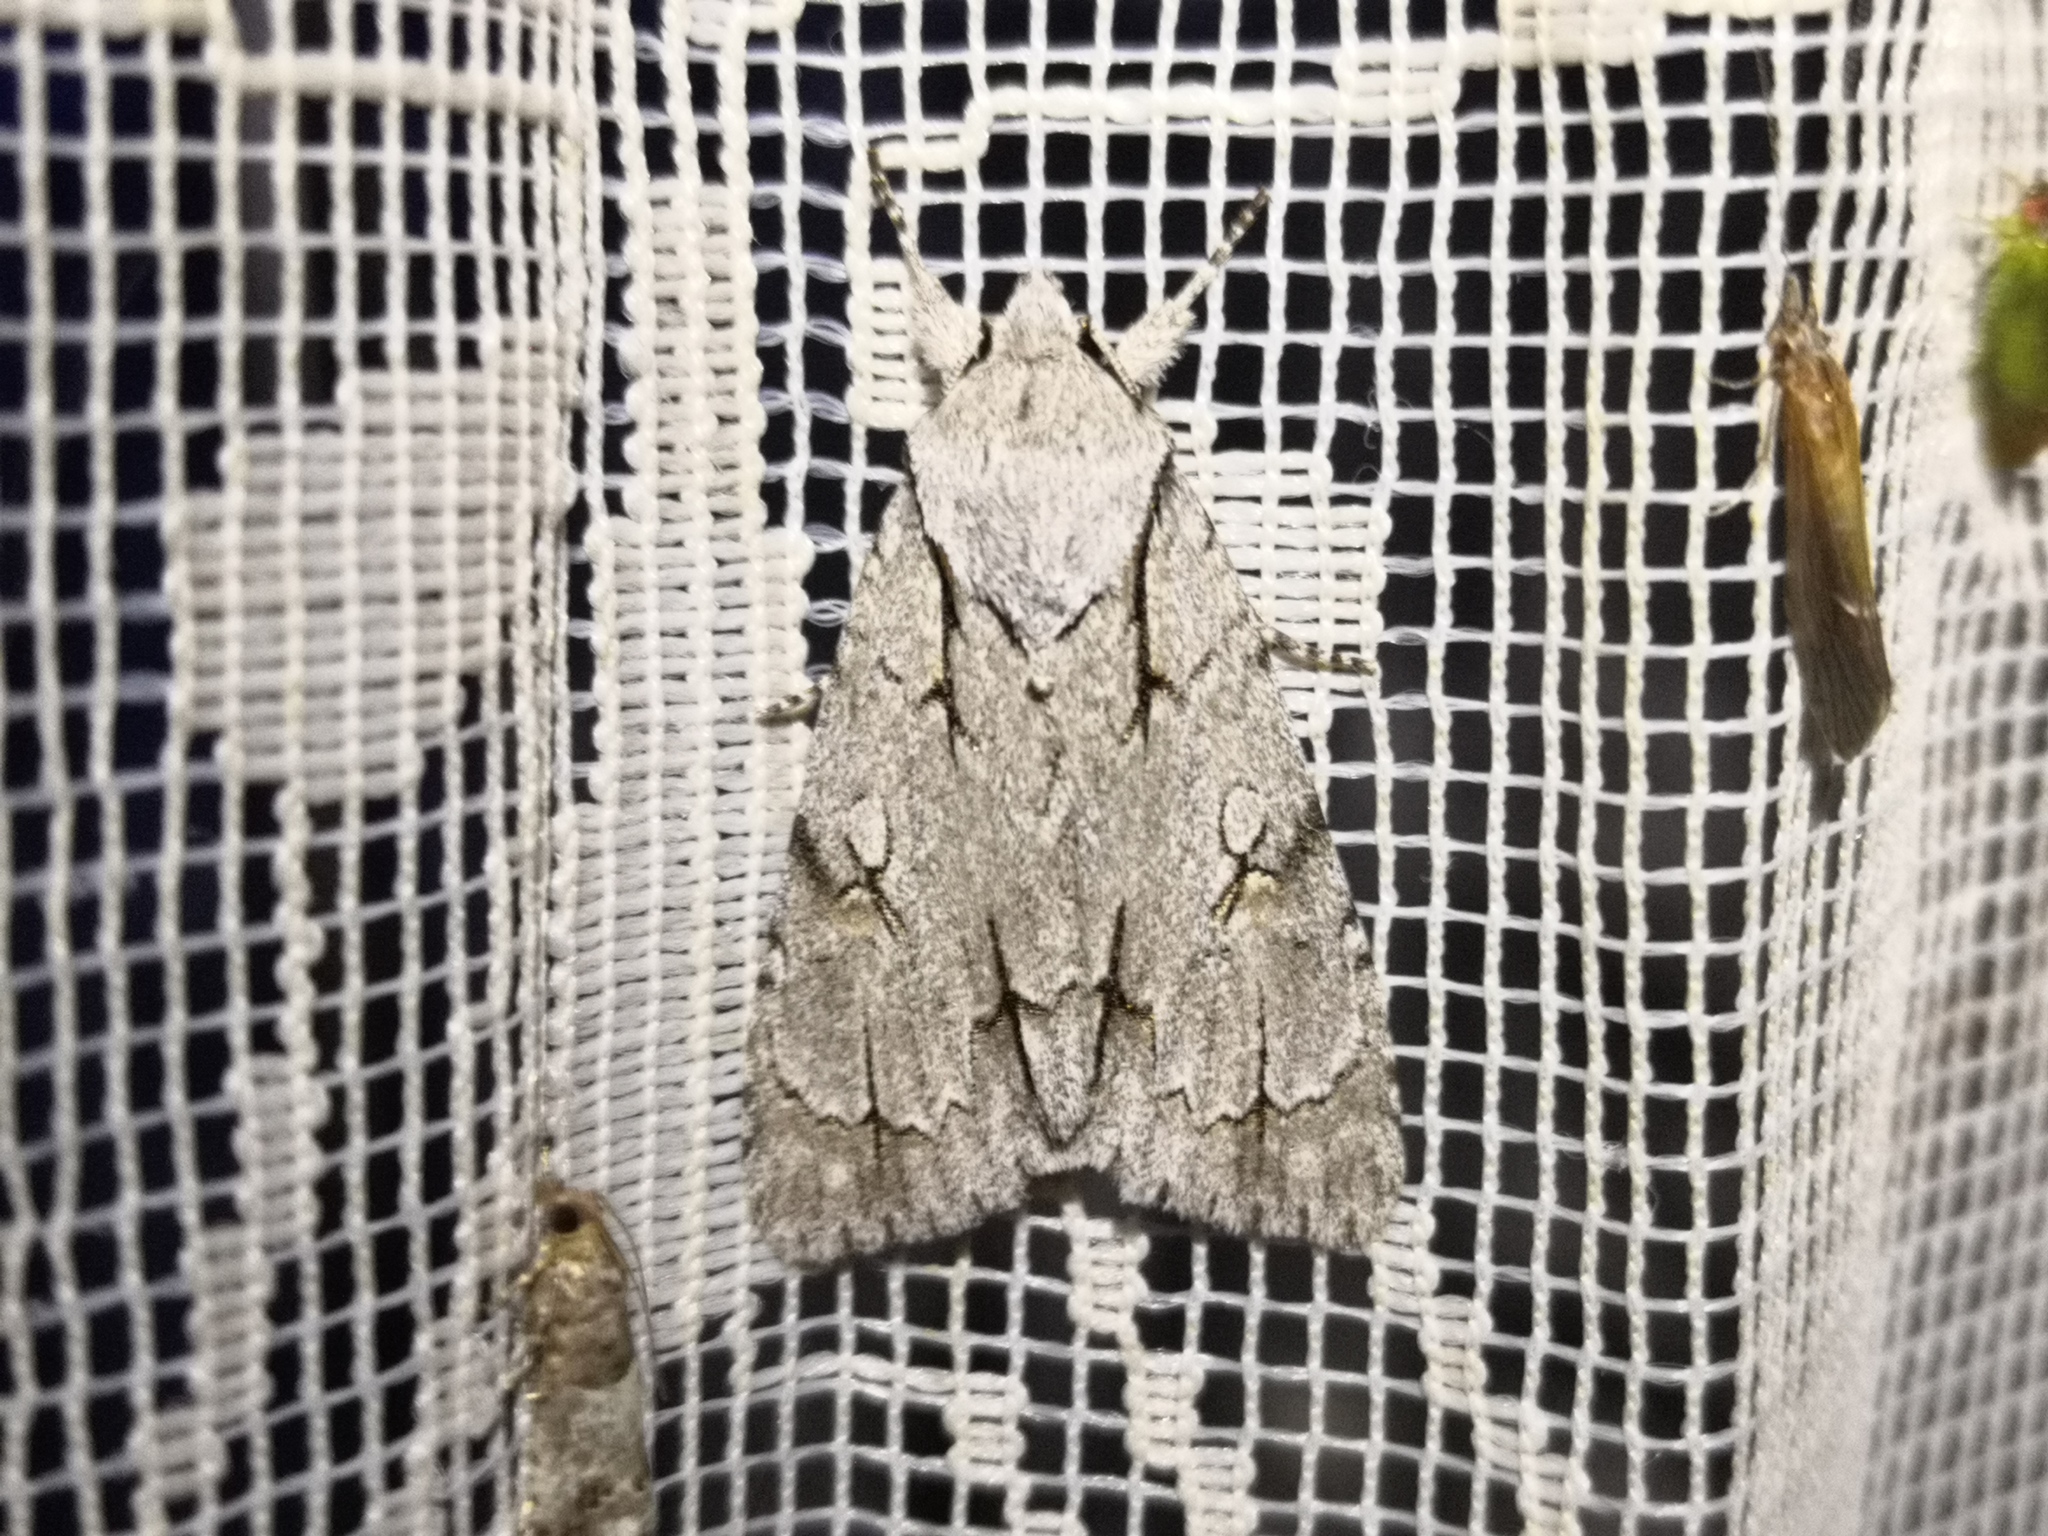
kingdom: Animalia
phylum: Arthropoda
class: Insecta
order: Lepidoptera
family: Noctuidae
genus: Acronicta
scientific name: Acronicta psi
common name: Grey dagger
